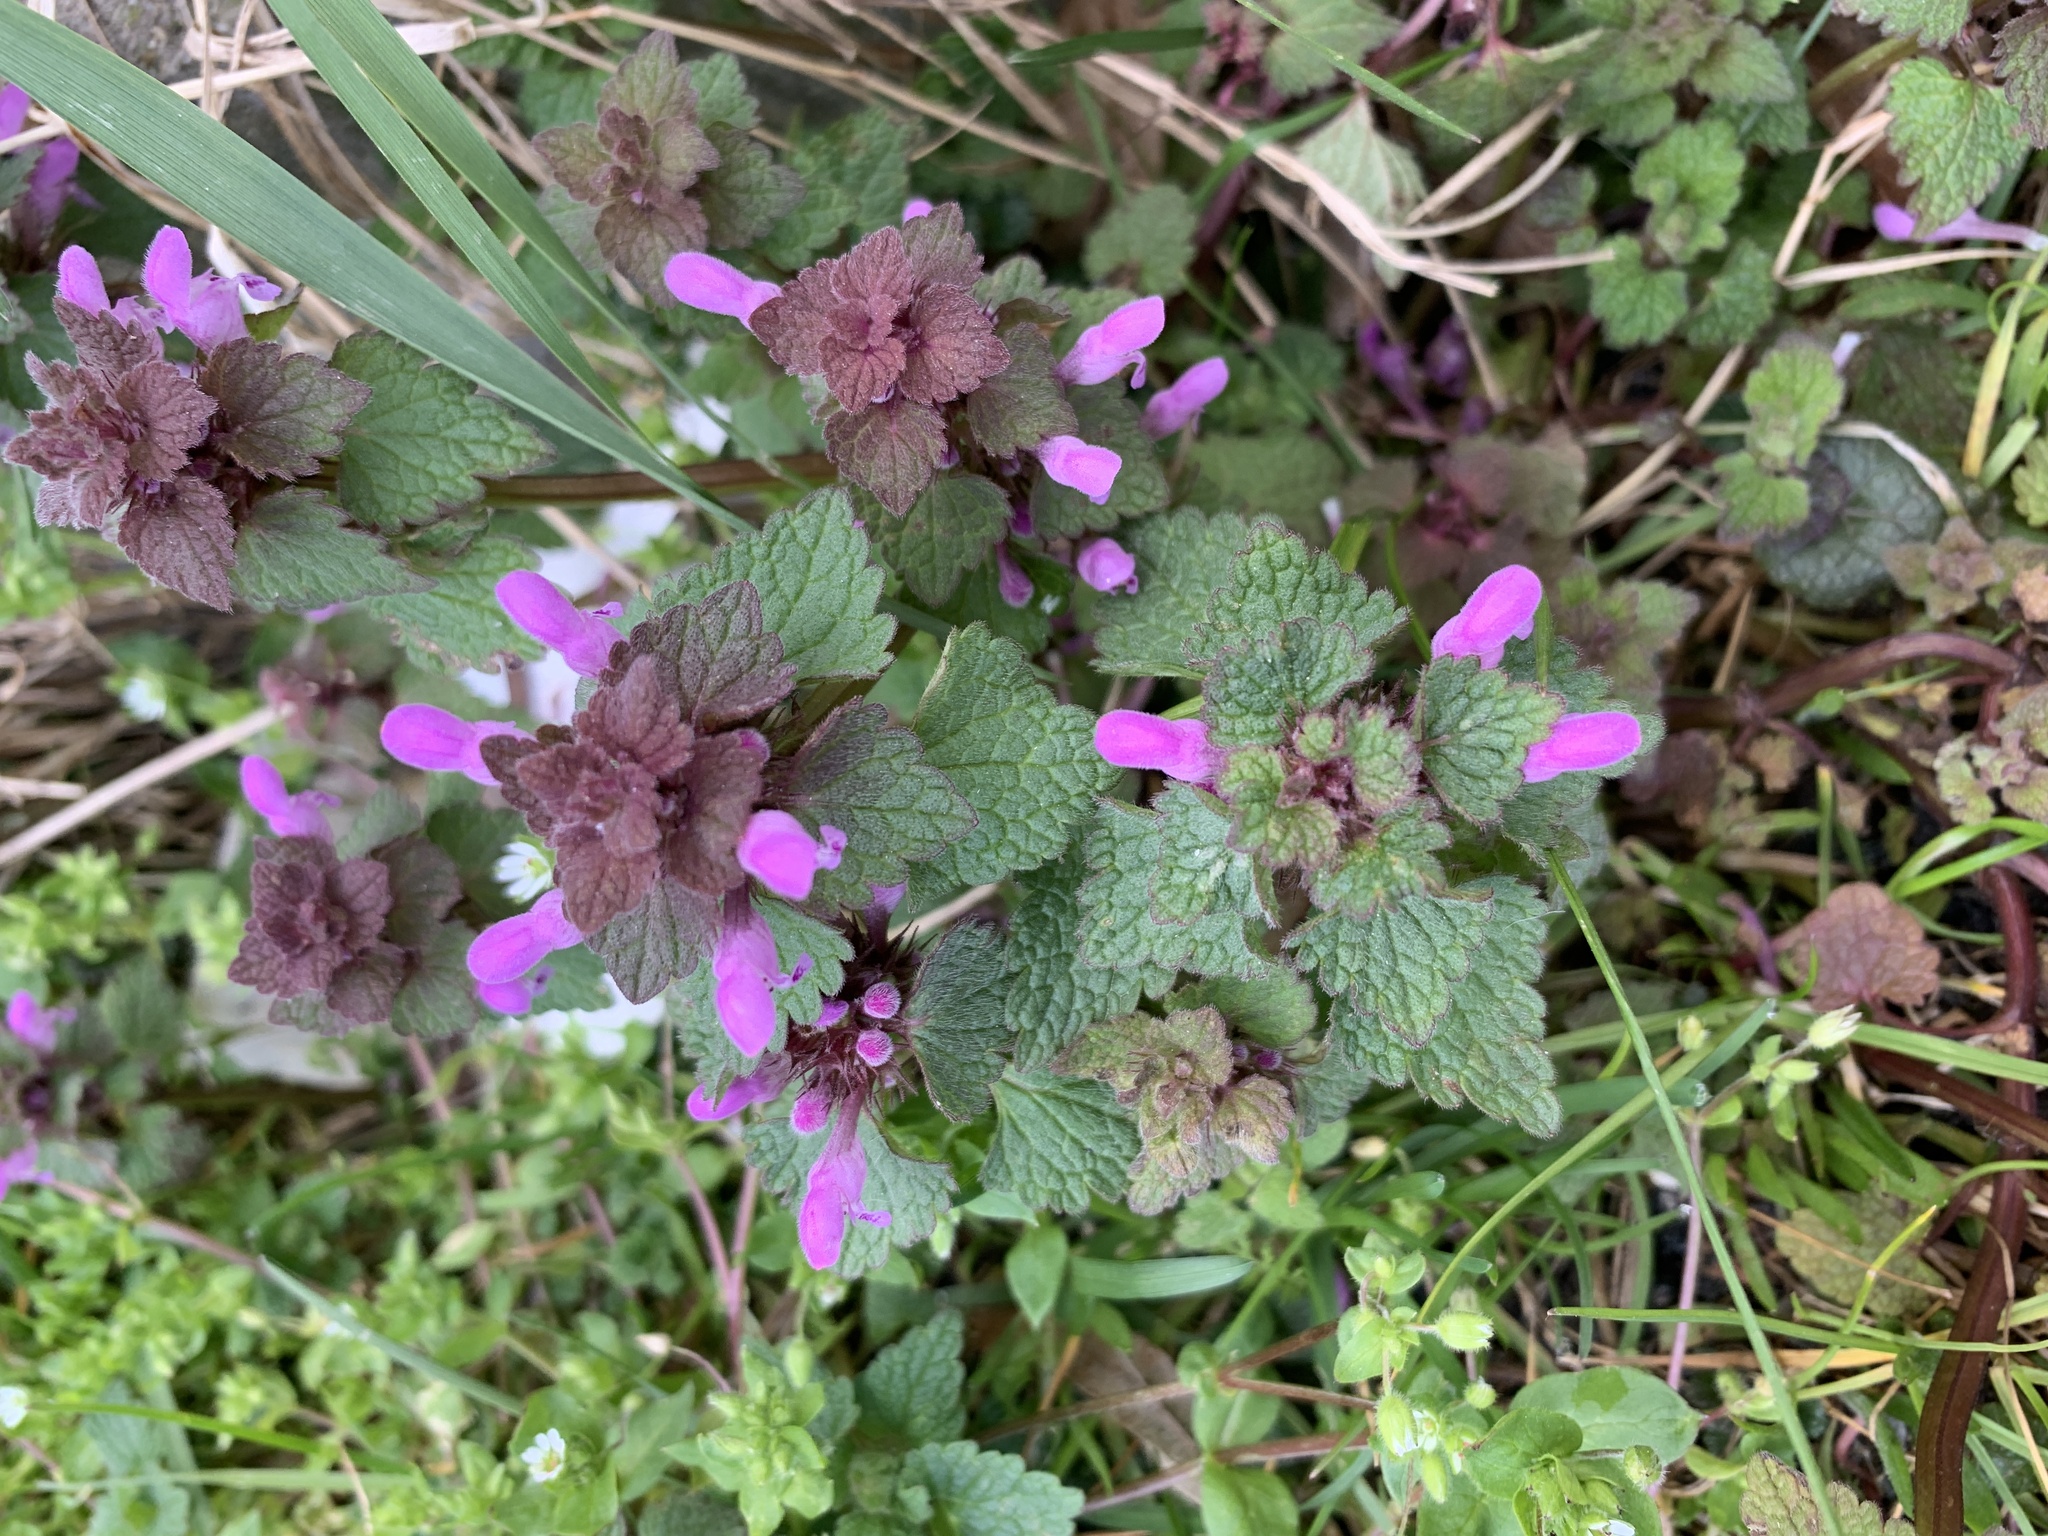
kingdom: Plantae
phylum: Tracheophyta
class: Magnoliopsida
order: Lamiales
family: Lamiaceae
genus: Lamium
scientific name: Lamium purpureum
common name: Red dead-nettle
